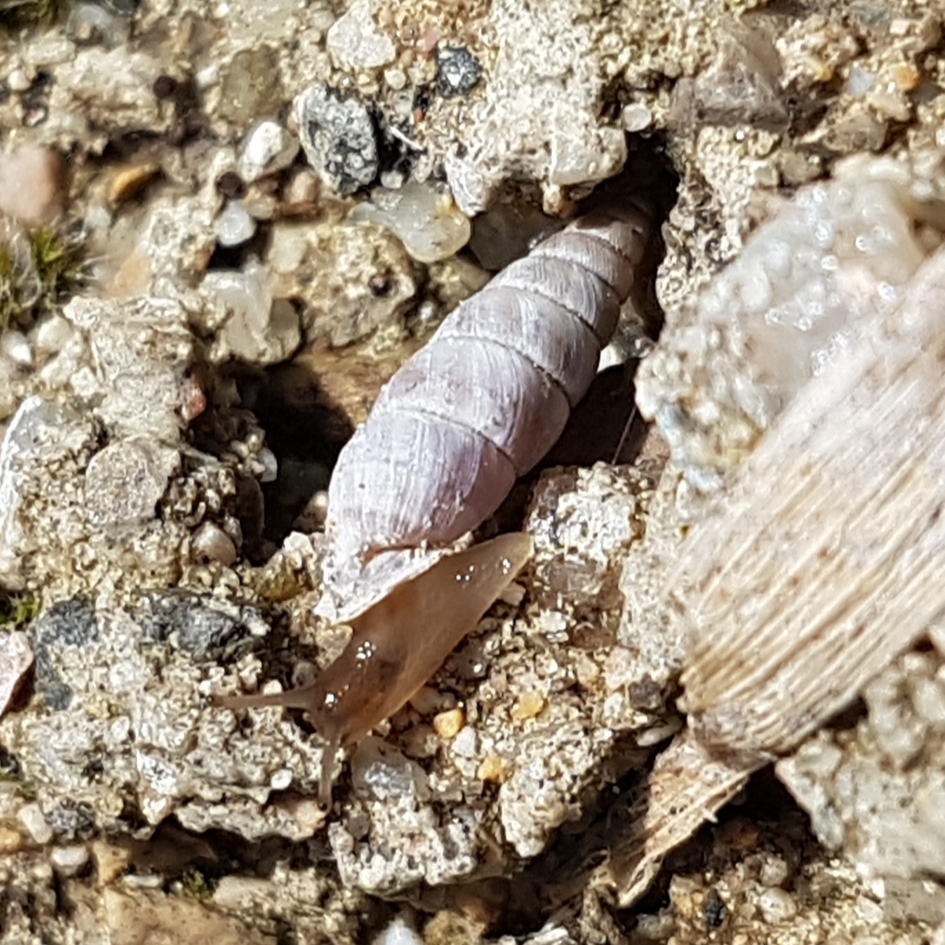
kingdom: Animalia
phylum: Mollusca
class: Gastropoda
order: Stylommatophora
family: Chondrinidae
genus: Solatopupa
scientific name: Solatopupa similis
